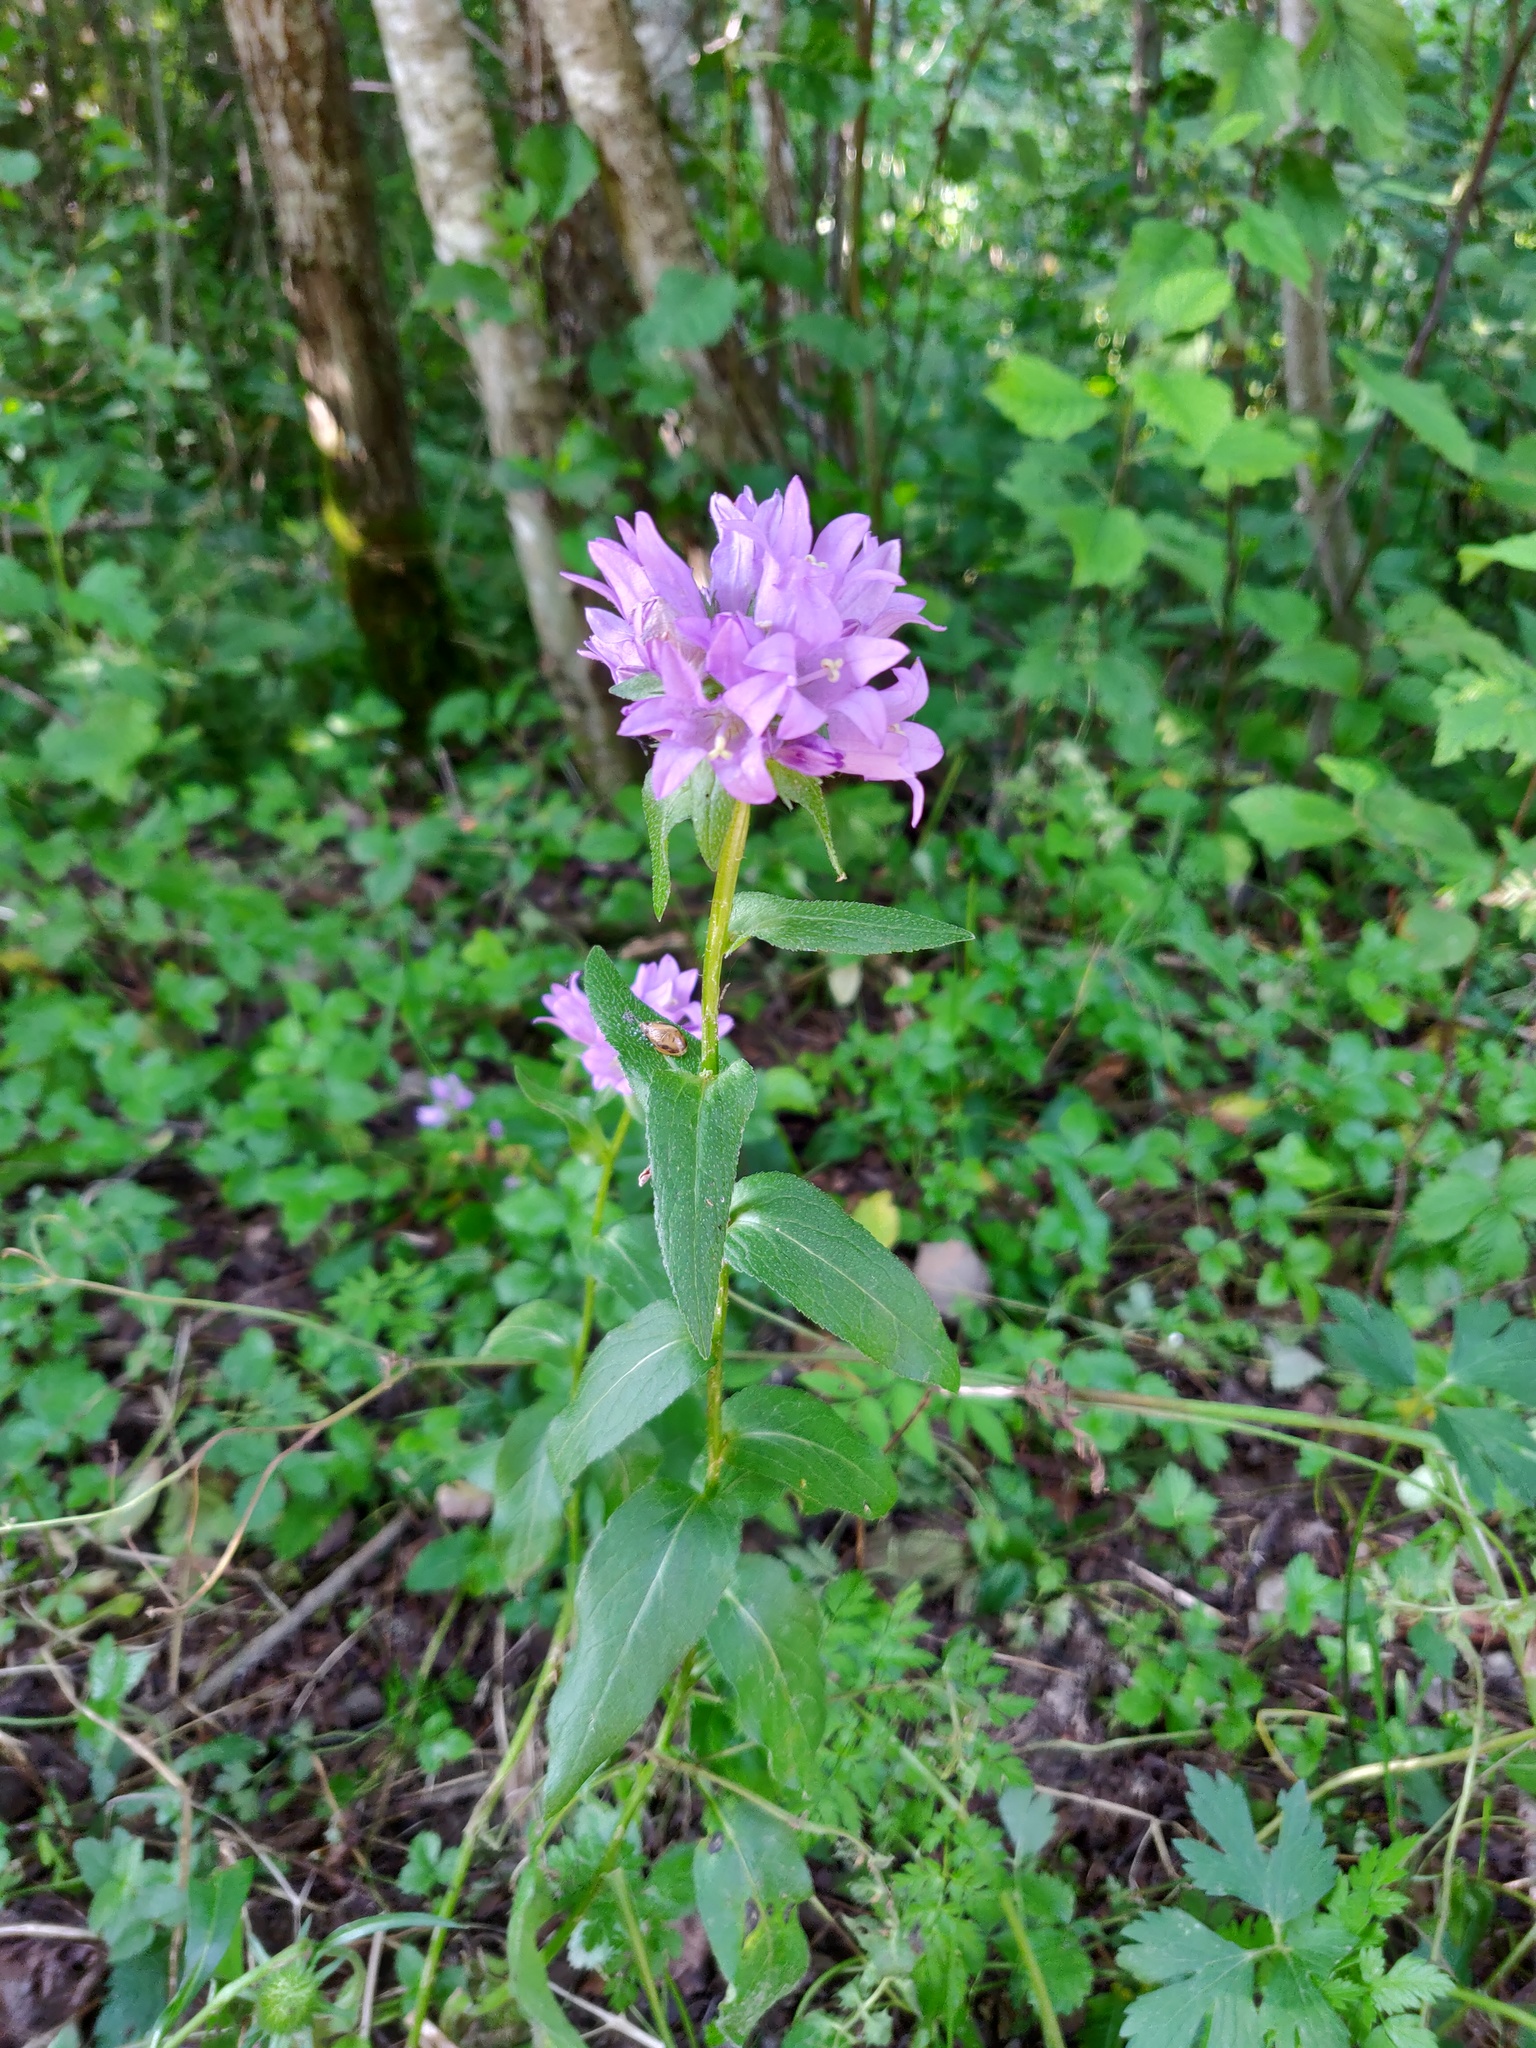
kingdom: Plantae
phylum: Tracheophyta
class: Magnoliopsida
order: Asterales
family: Campanulaceae
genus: Campanula
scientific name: Campanula glomerata
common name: Clustered bellflower
